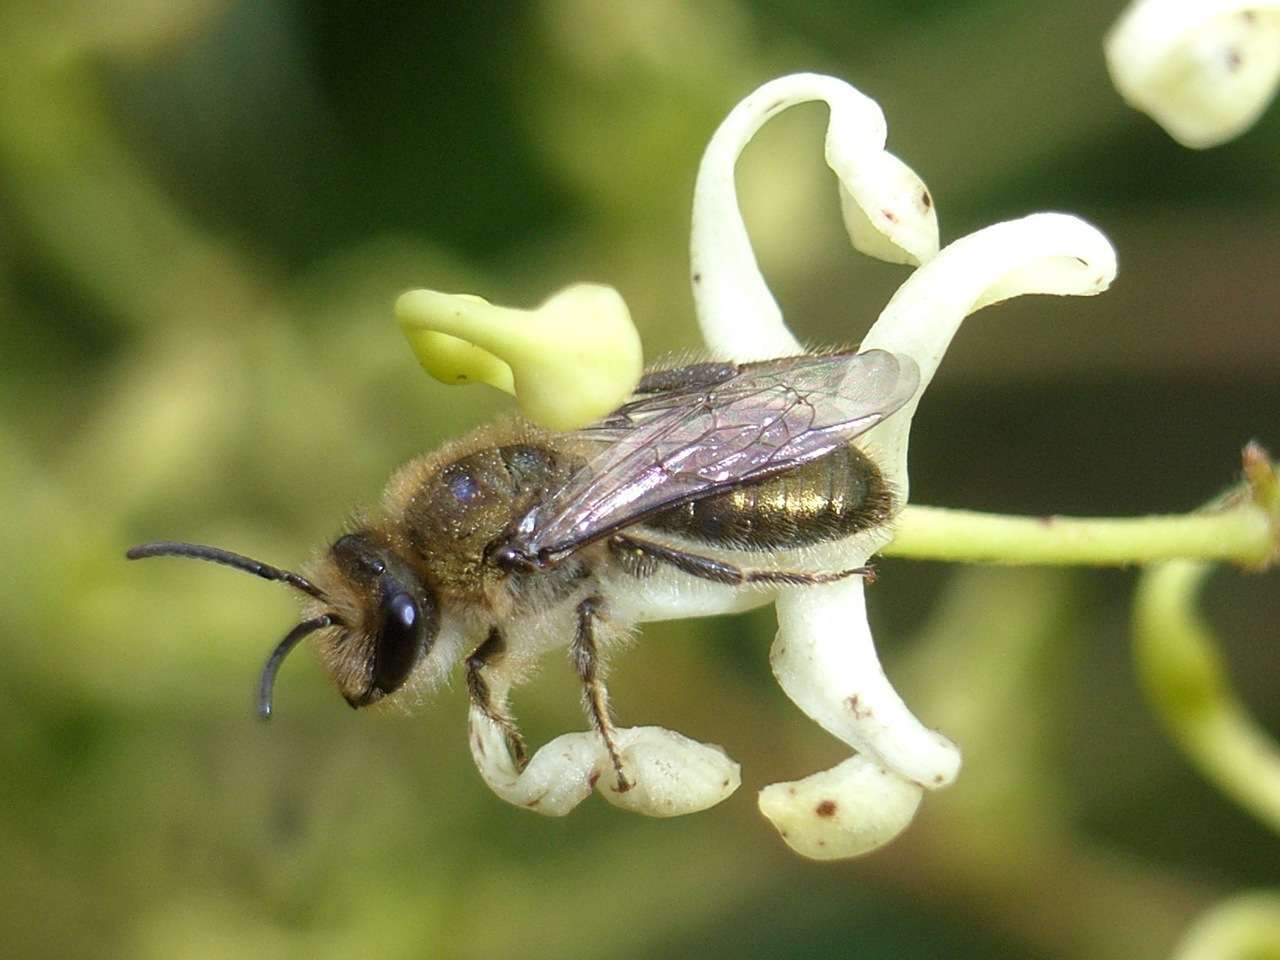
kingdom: Animalia
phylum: Arthropoda
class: Insecta
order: Hymenoptera
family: Colletidae
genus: Leioproctus
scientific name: Leioproctus amabilis
